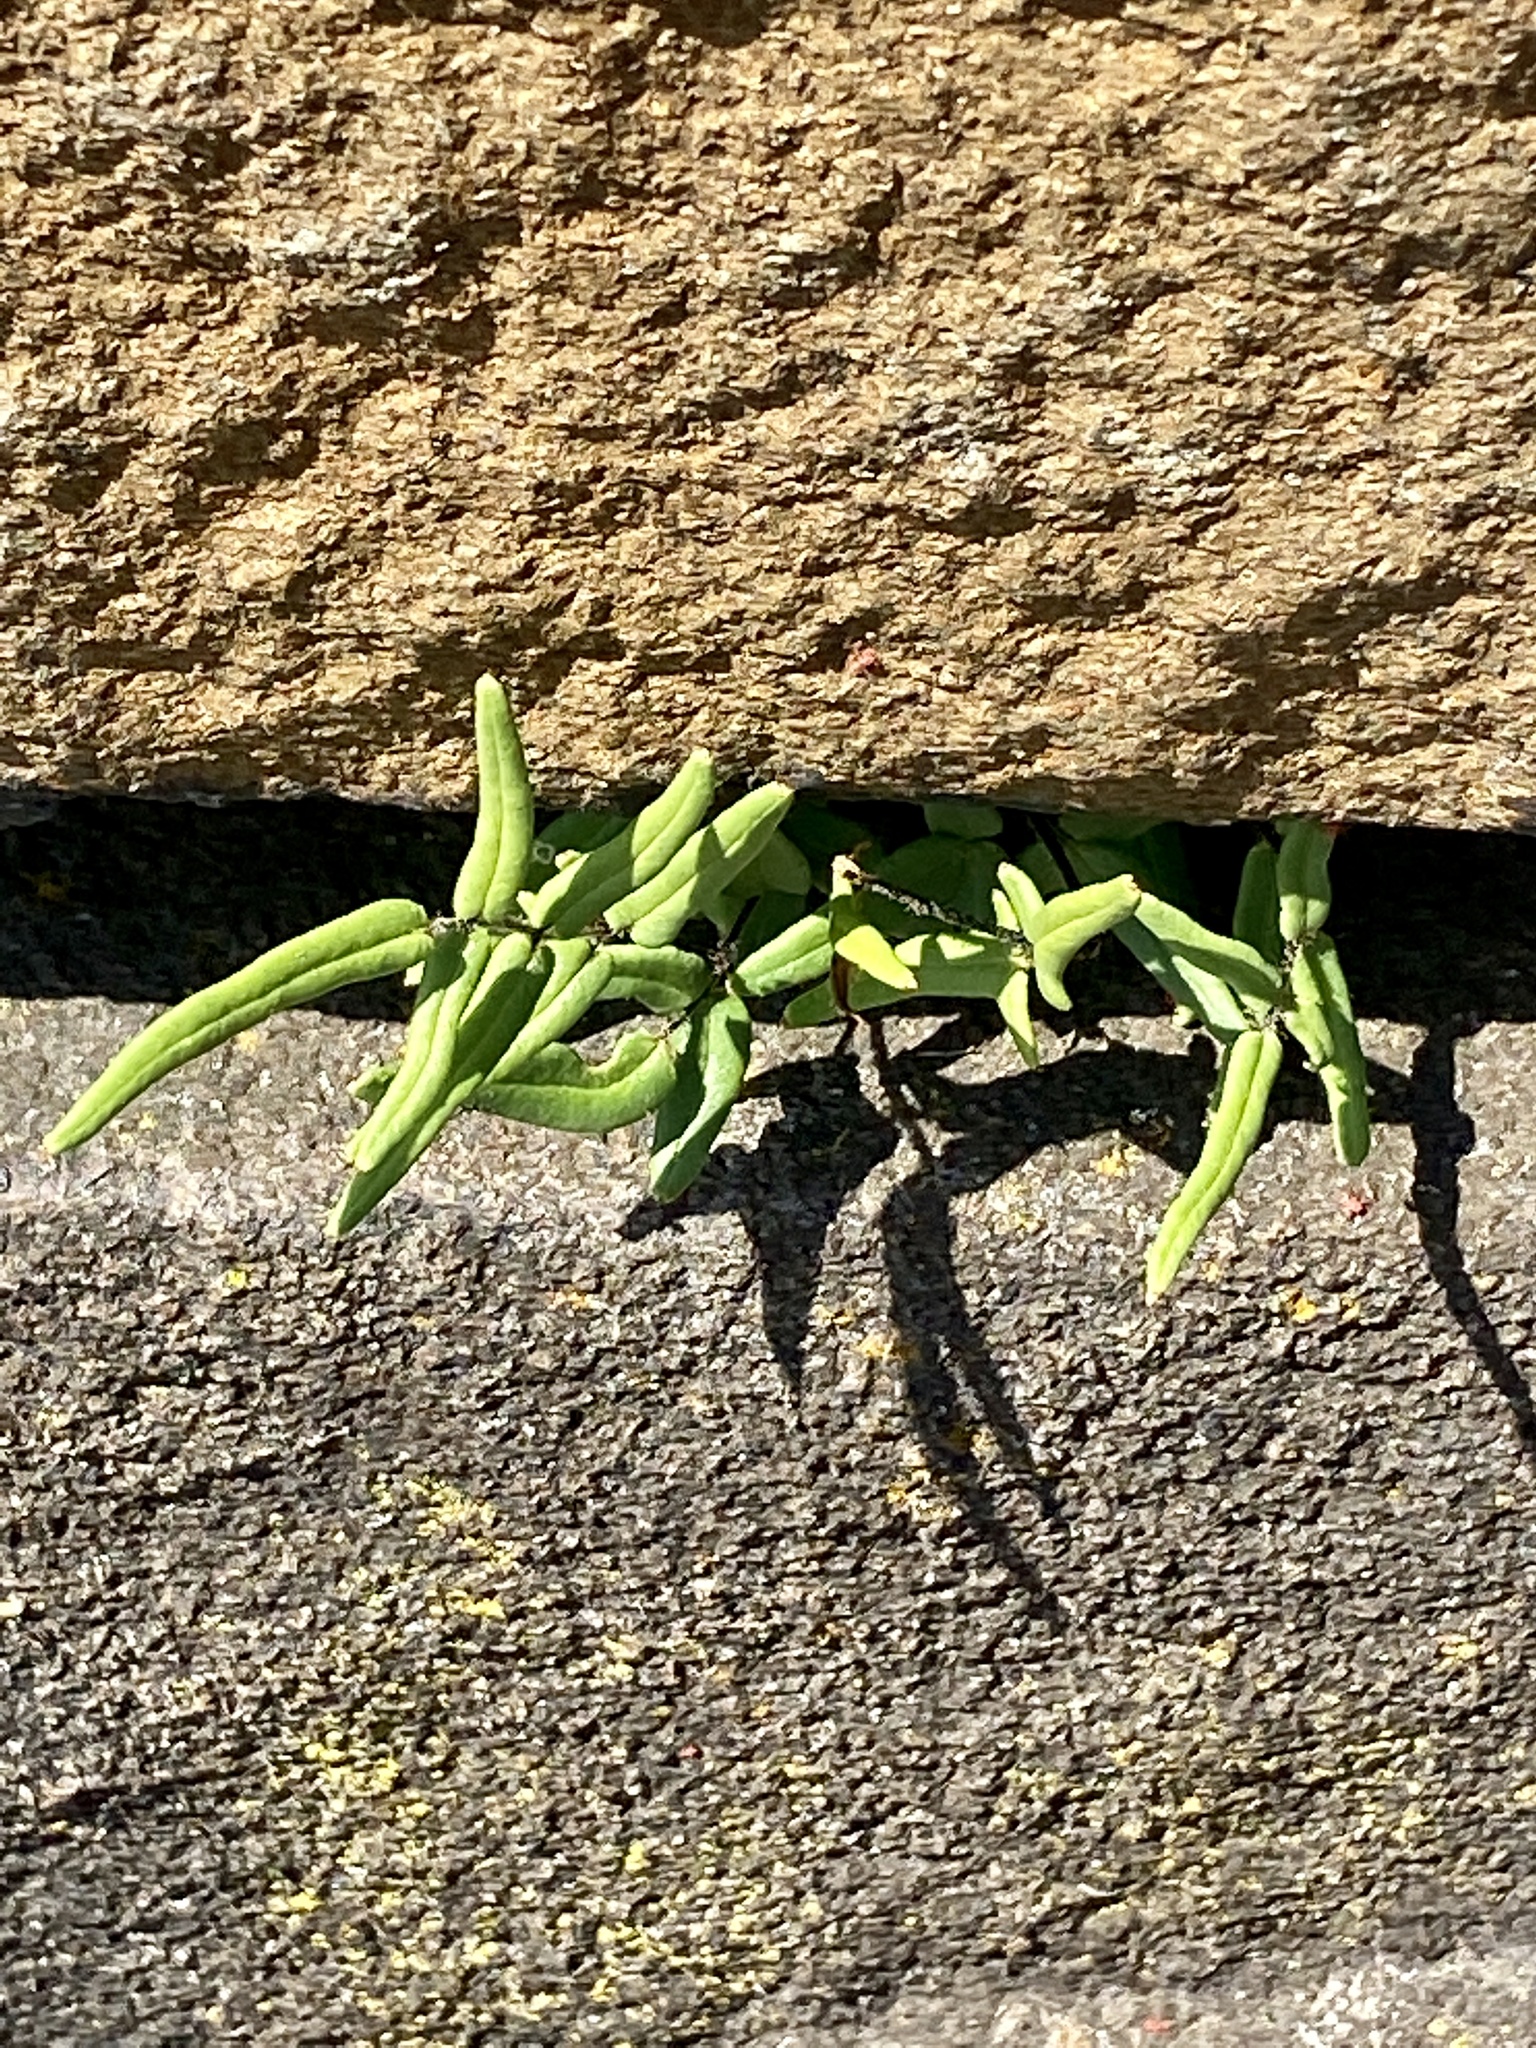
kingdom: Plantae
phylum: Tracheophyta
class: Polypodiopsida
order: Polypodiales
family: Pteridaceae
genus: Pellaea
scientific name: Pellaea atropurpurea
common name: Hairy cliffbrake
